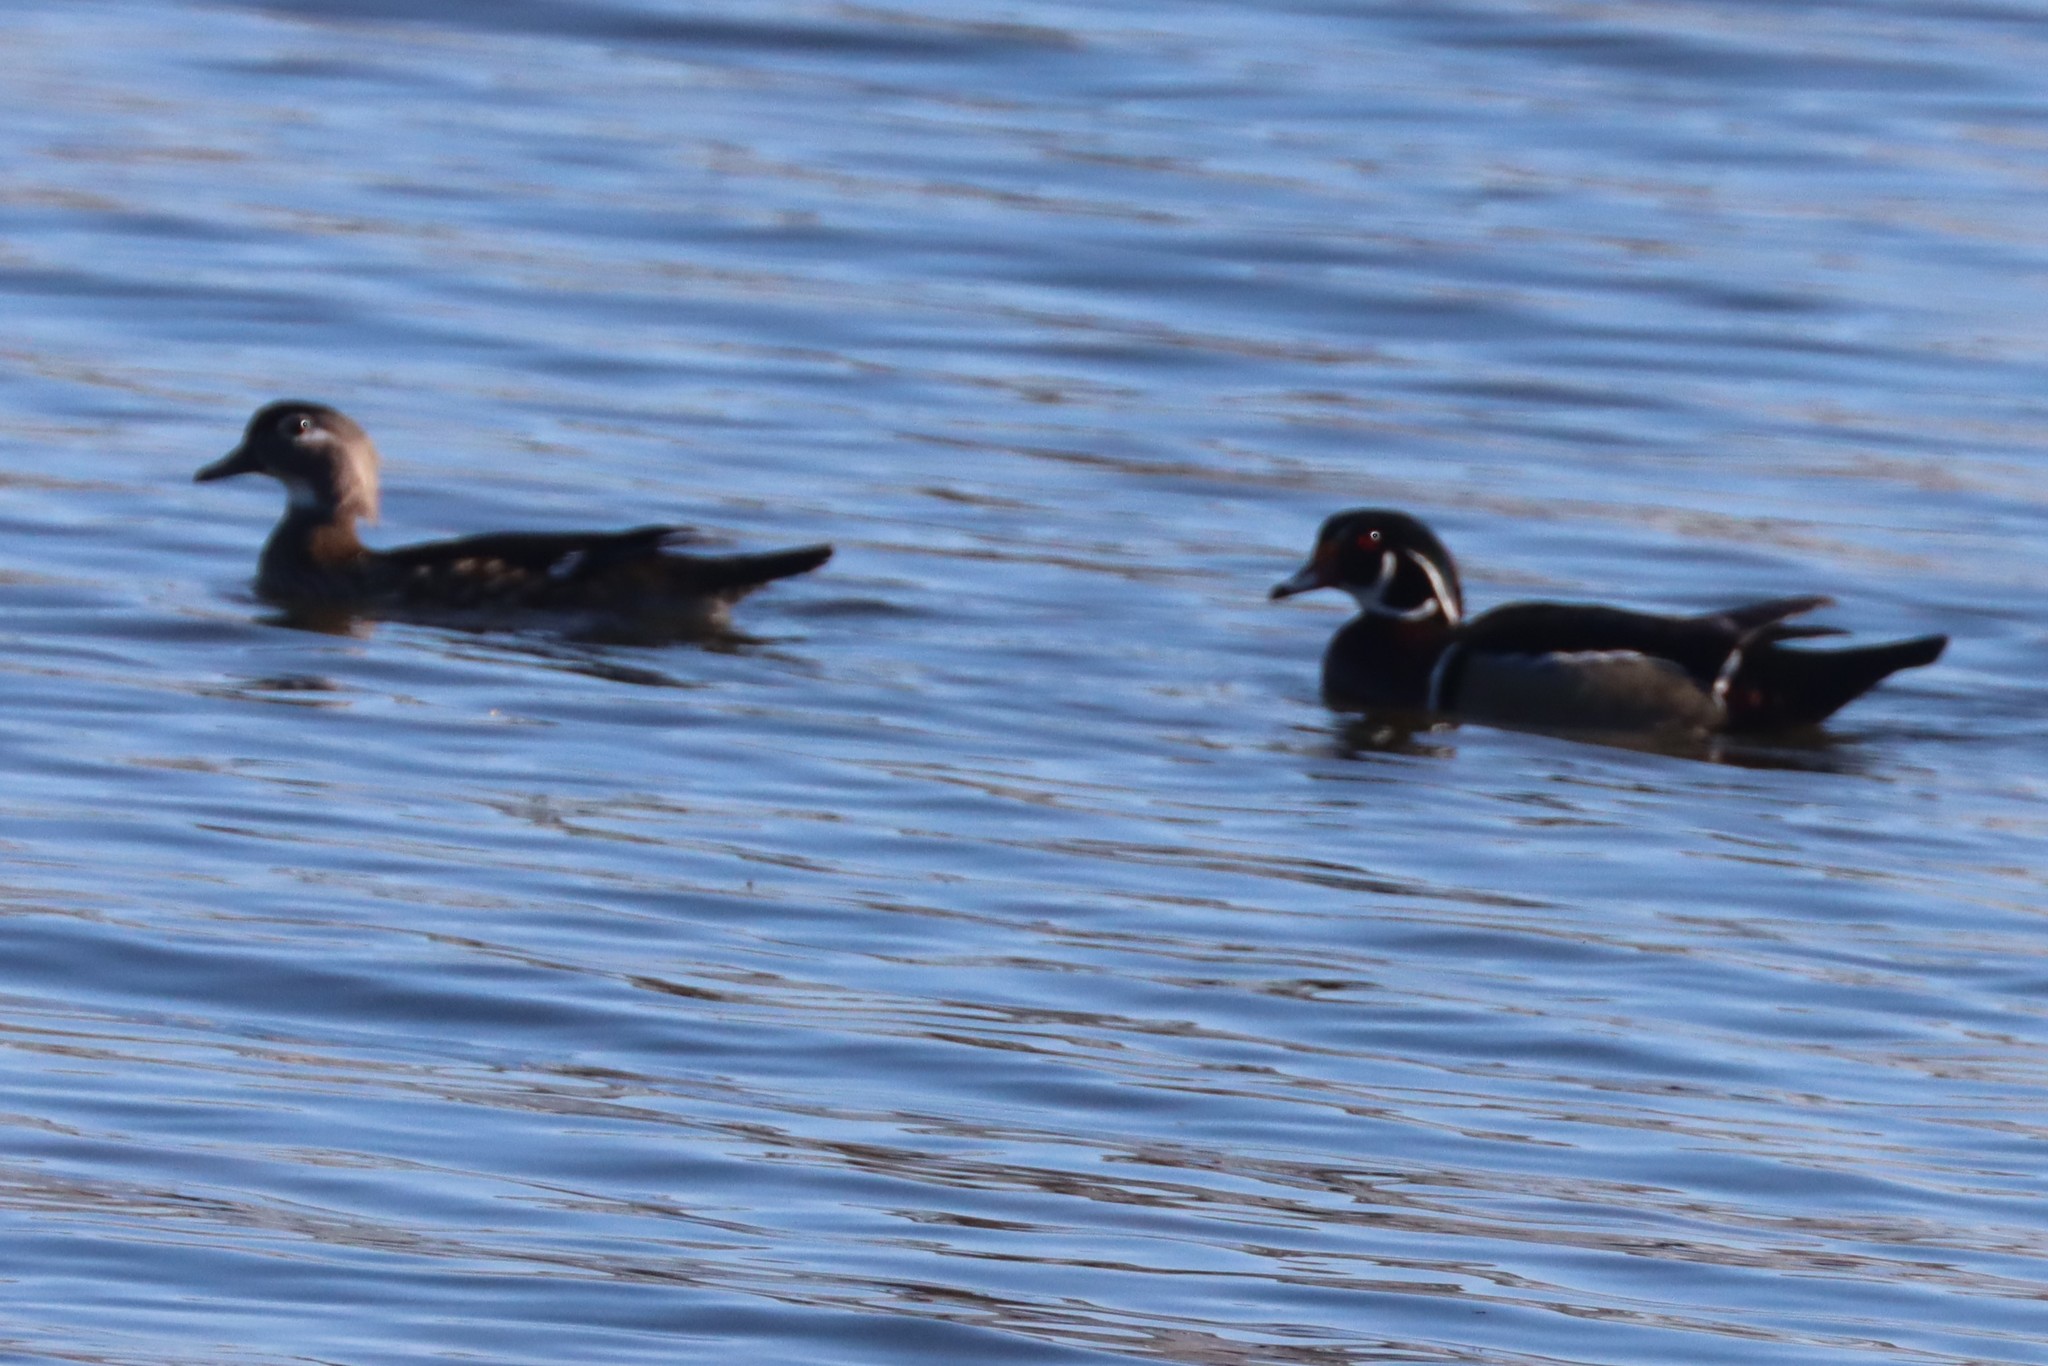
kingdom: Animalia
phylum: Chordata
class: Aves
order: Anseriformes
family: Anatidae
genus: Aix
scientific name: Aix sponsa
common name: Wood duck
